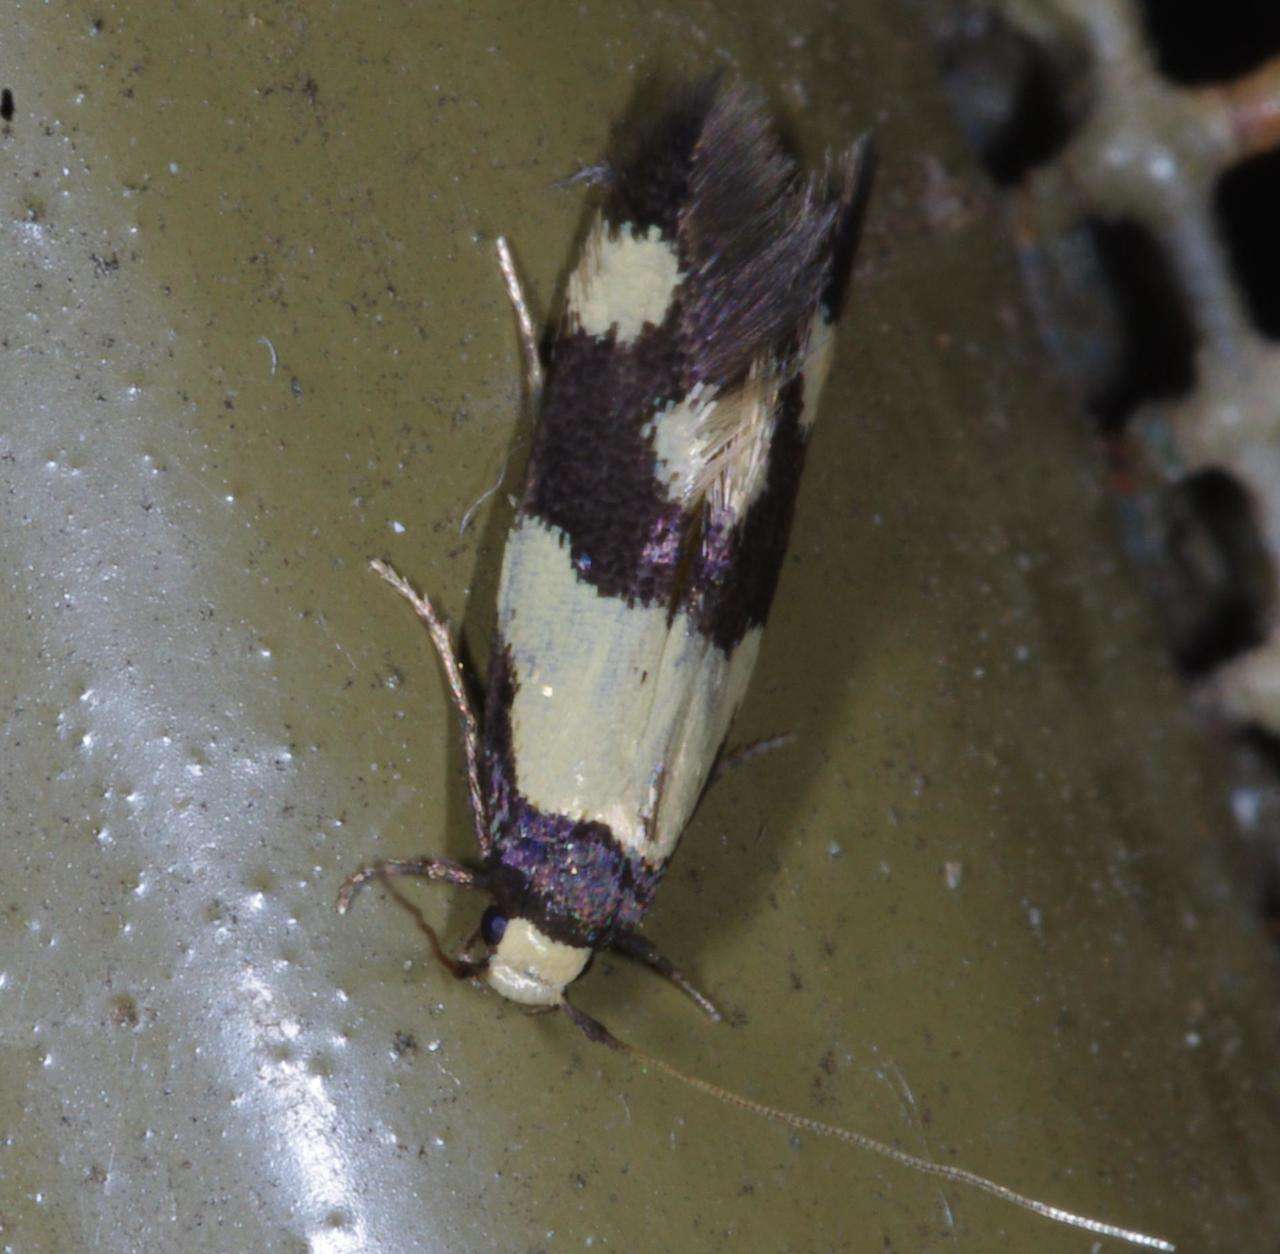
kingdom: Animalia
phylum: Arthropoda
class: Insecta
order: Lepidoptera
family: Tineidae
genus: Opogona
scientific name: Opogona comptella
